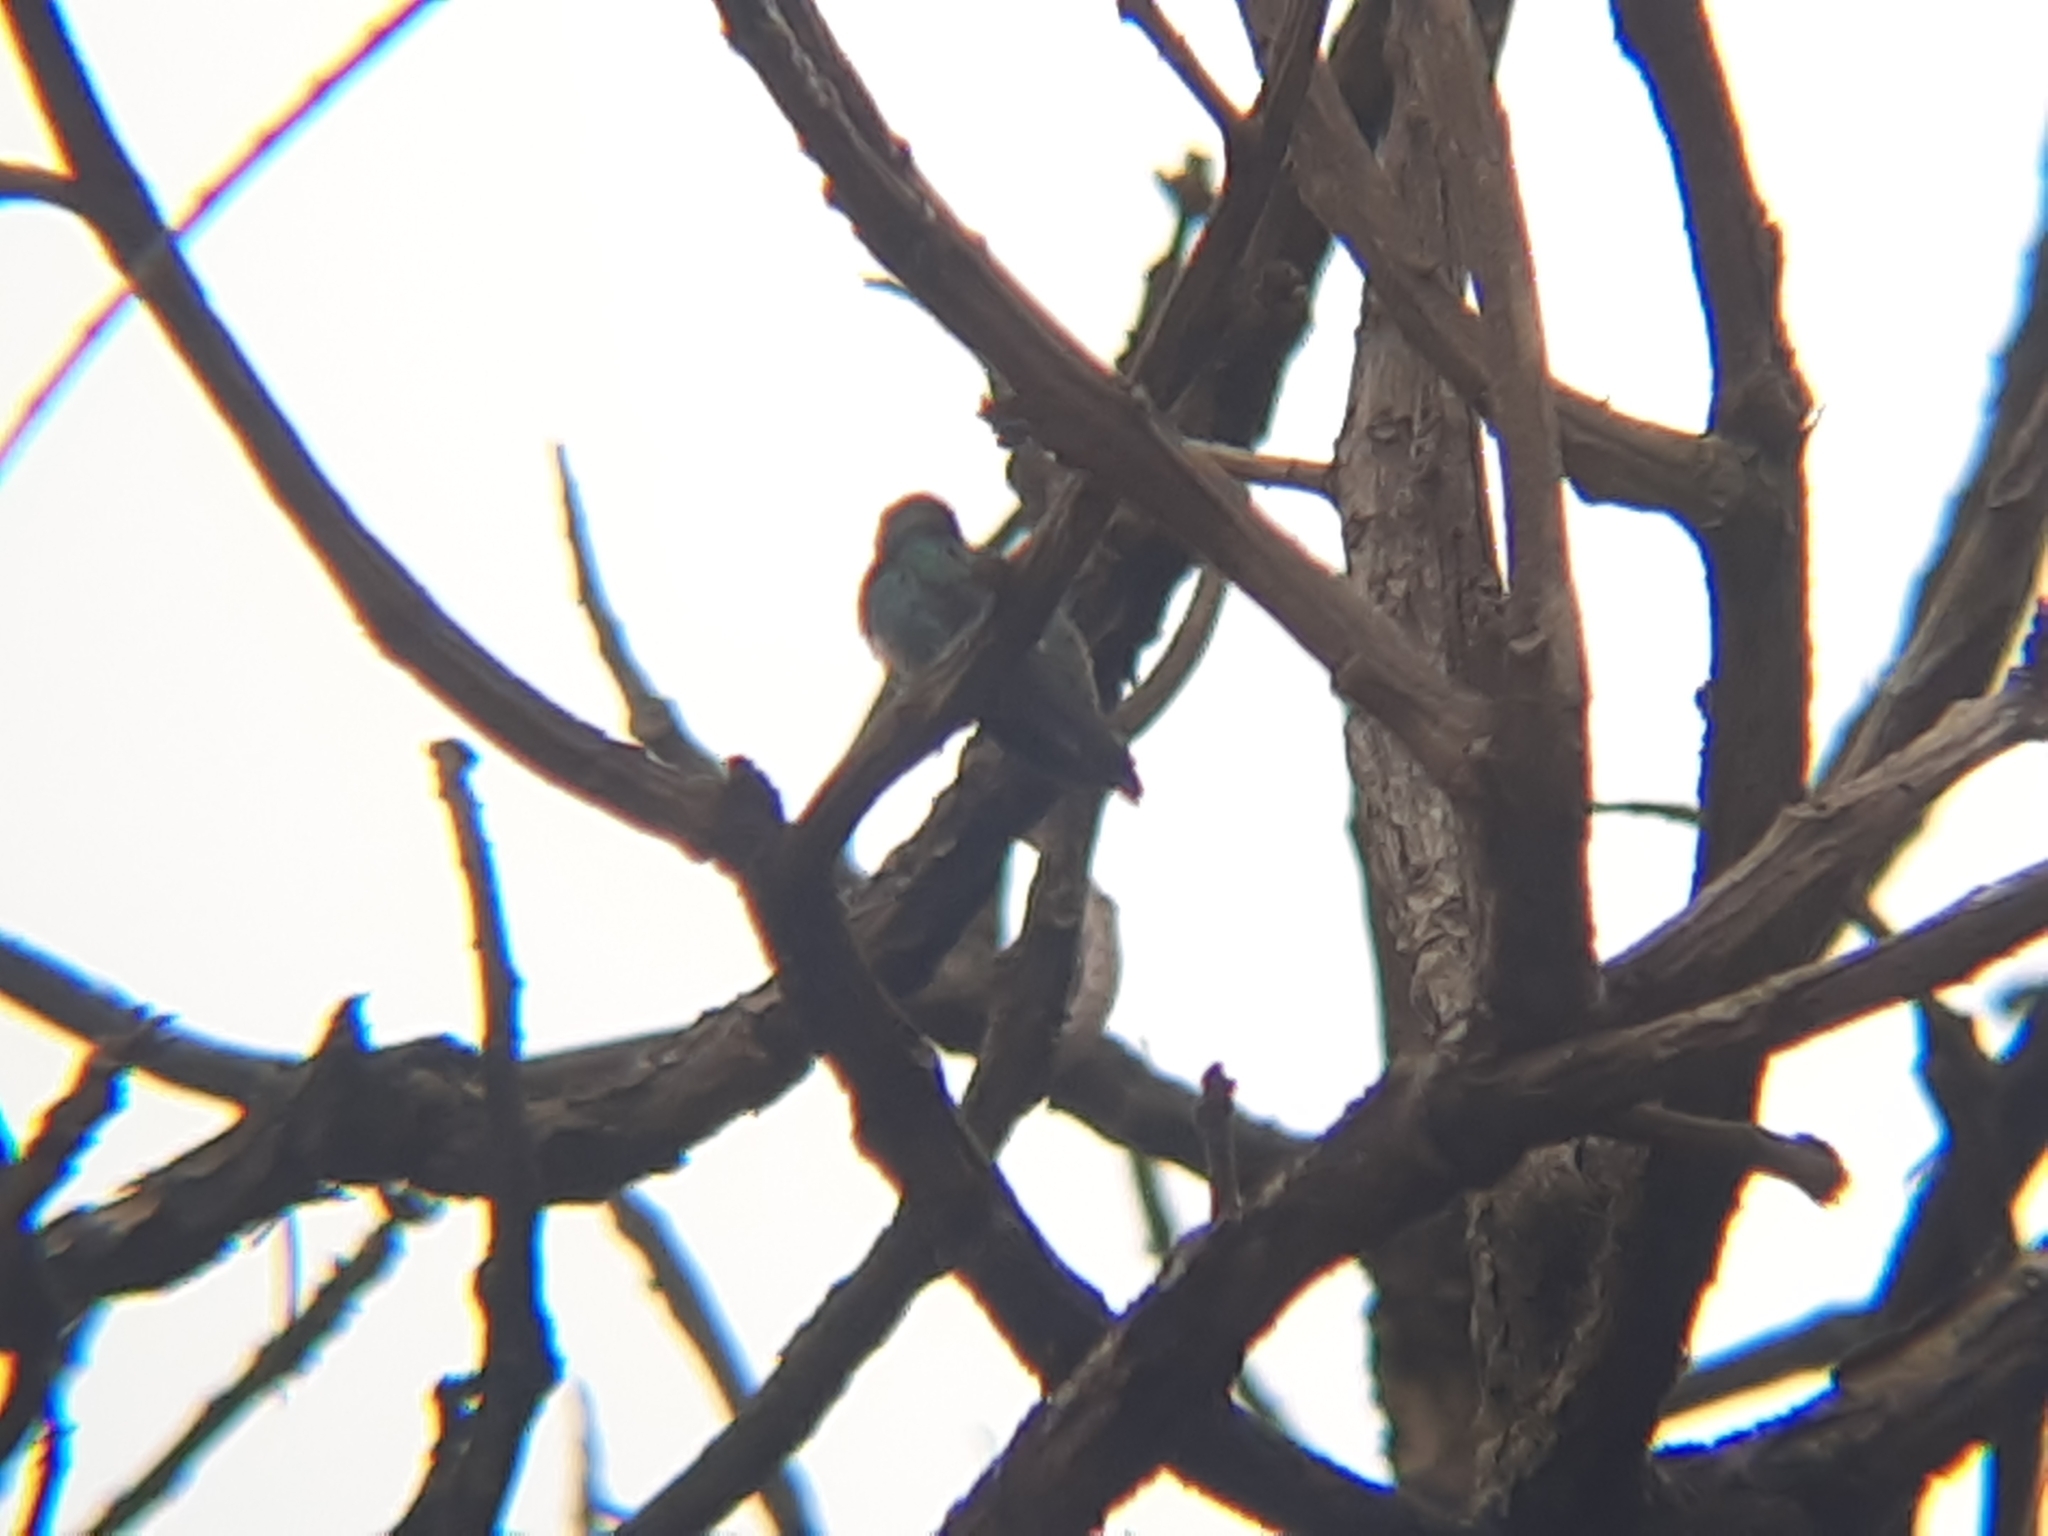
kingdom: Animalia
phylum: Chordata
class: Aves
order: Apodiformes
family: Trochilidae
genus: Chionomesa
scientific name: Chionomesa fimbriata
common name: Glittering-throated emerald
